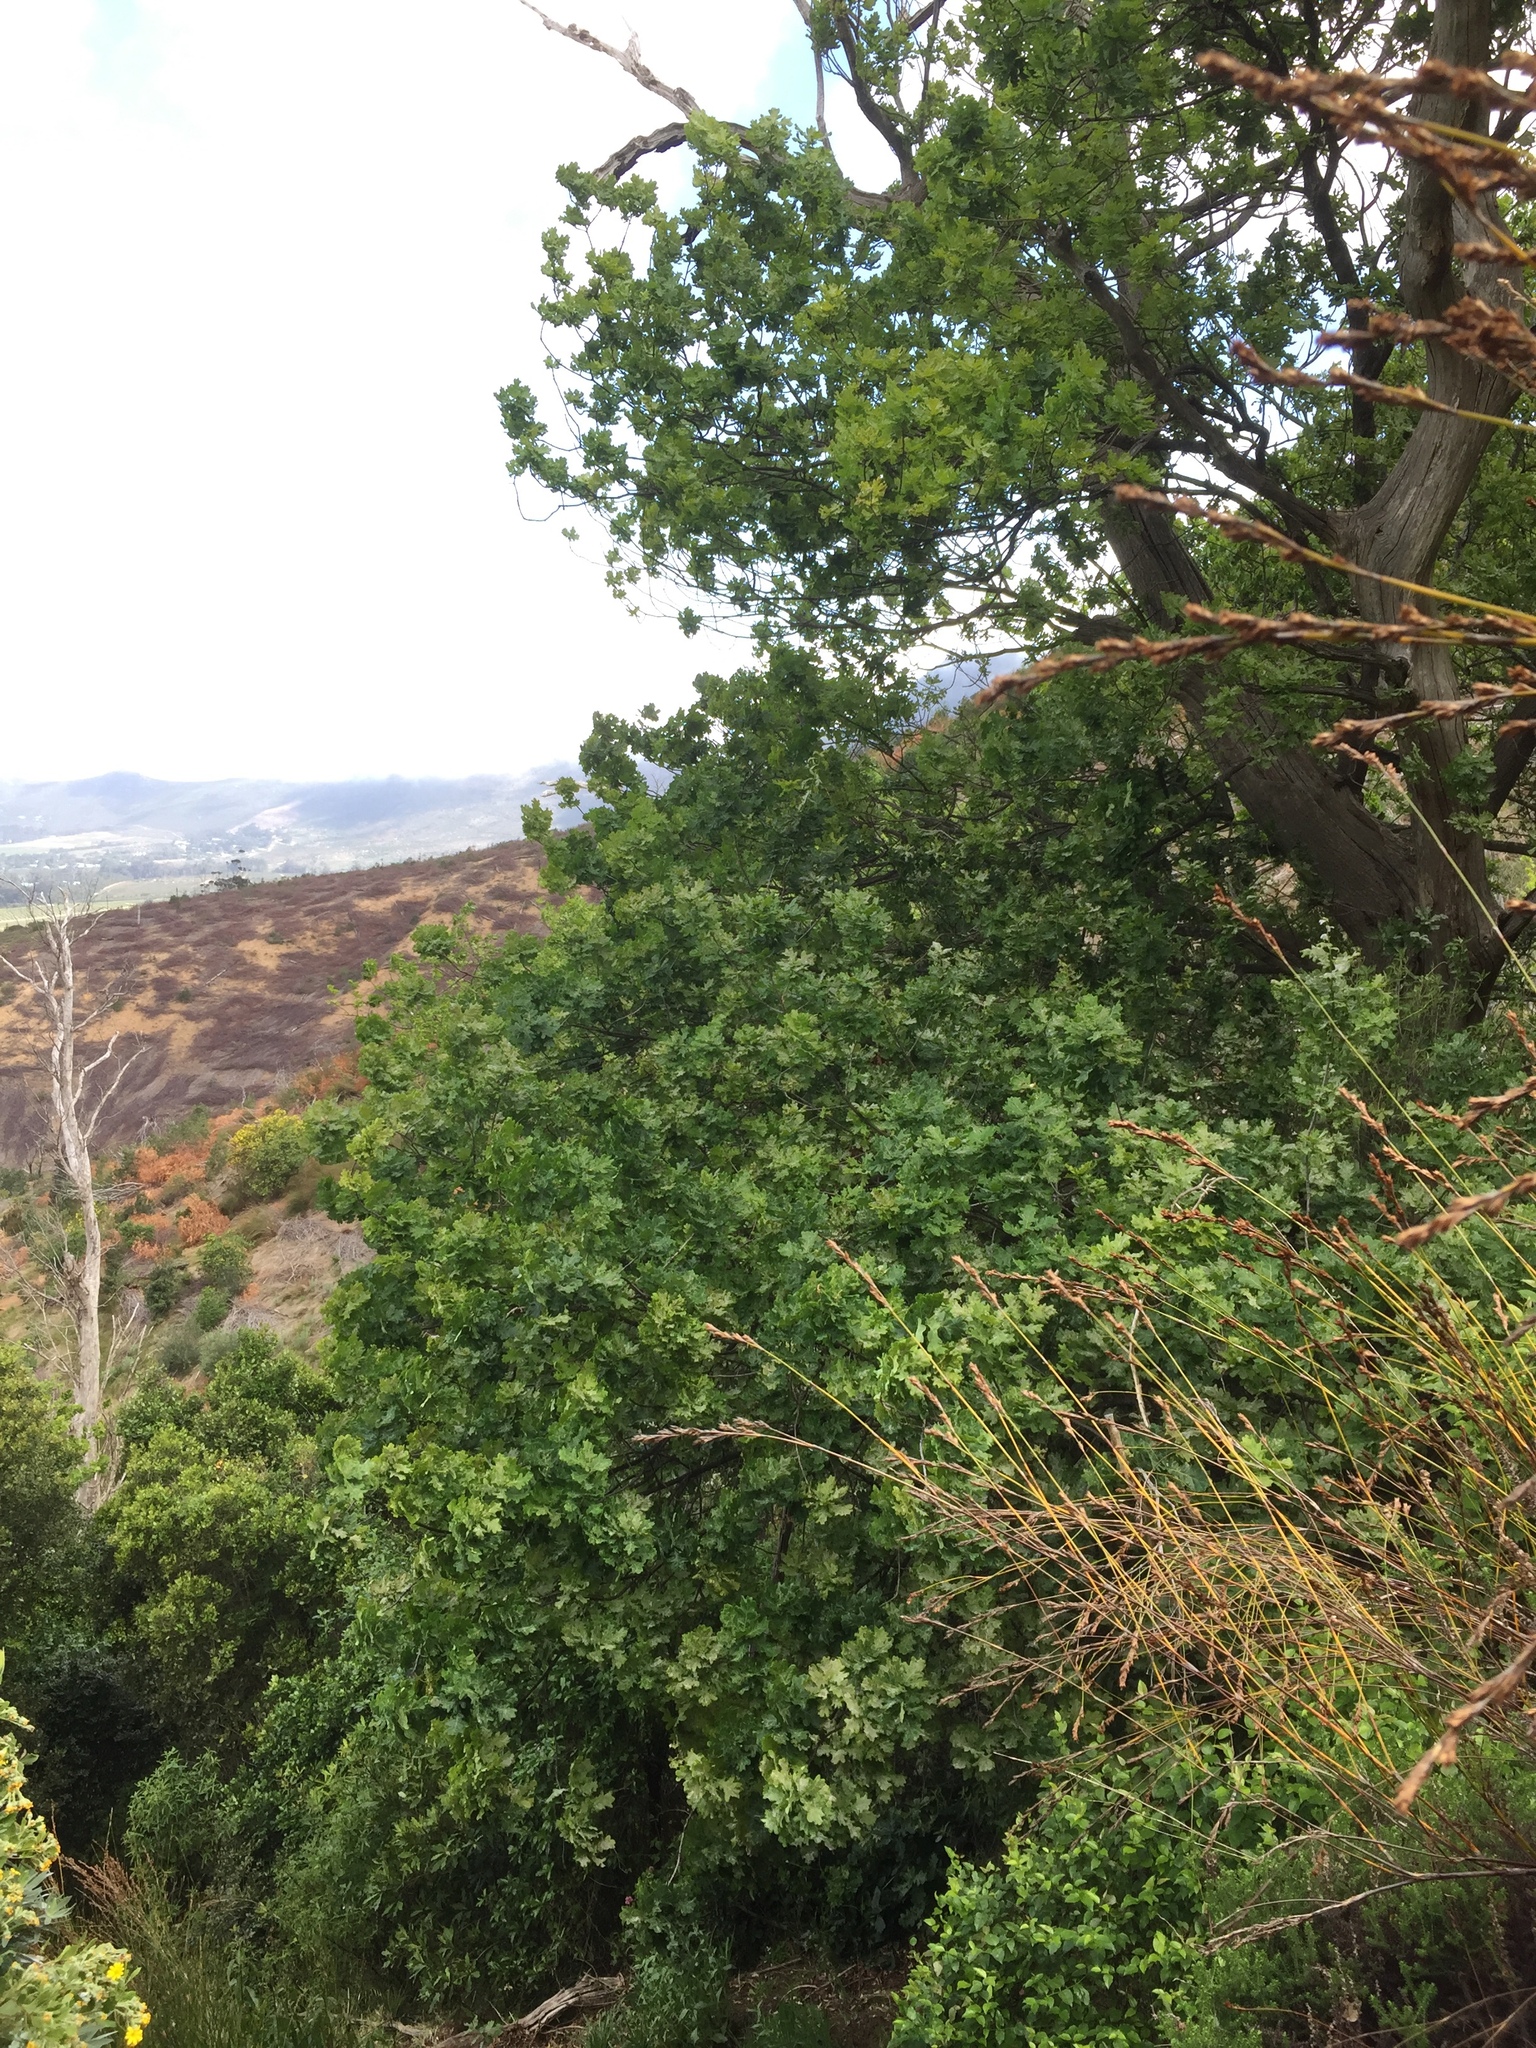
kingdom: Plantae
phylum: Tracheophyta
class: Magnoliopsida
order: Fagales
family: Fagaceae
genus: Quercus
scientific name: Quercus robur
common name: Pedunculate oak
